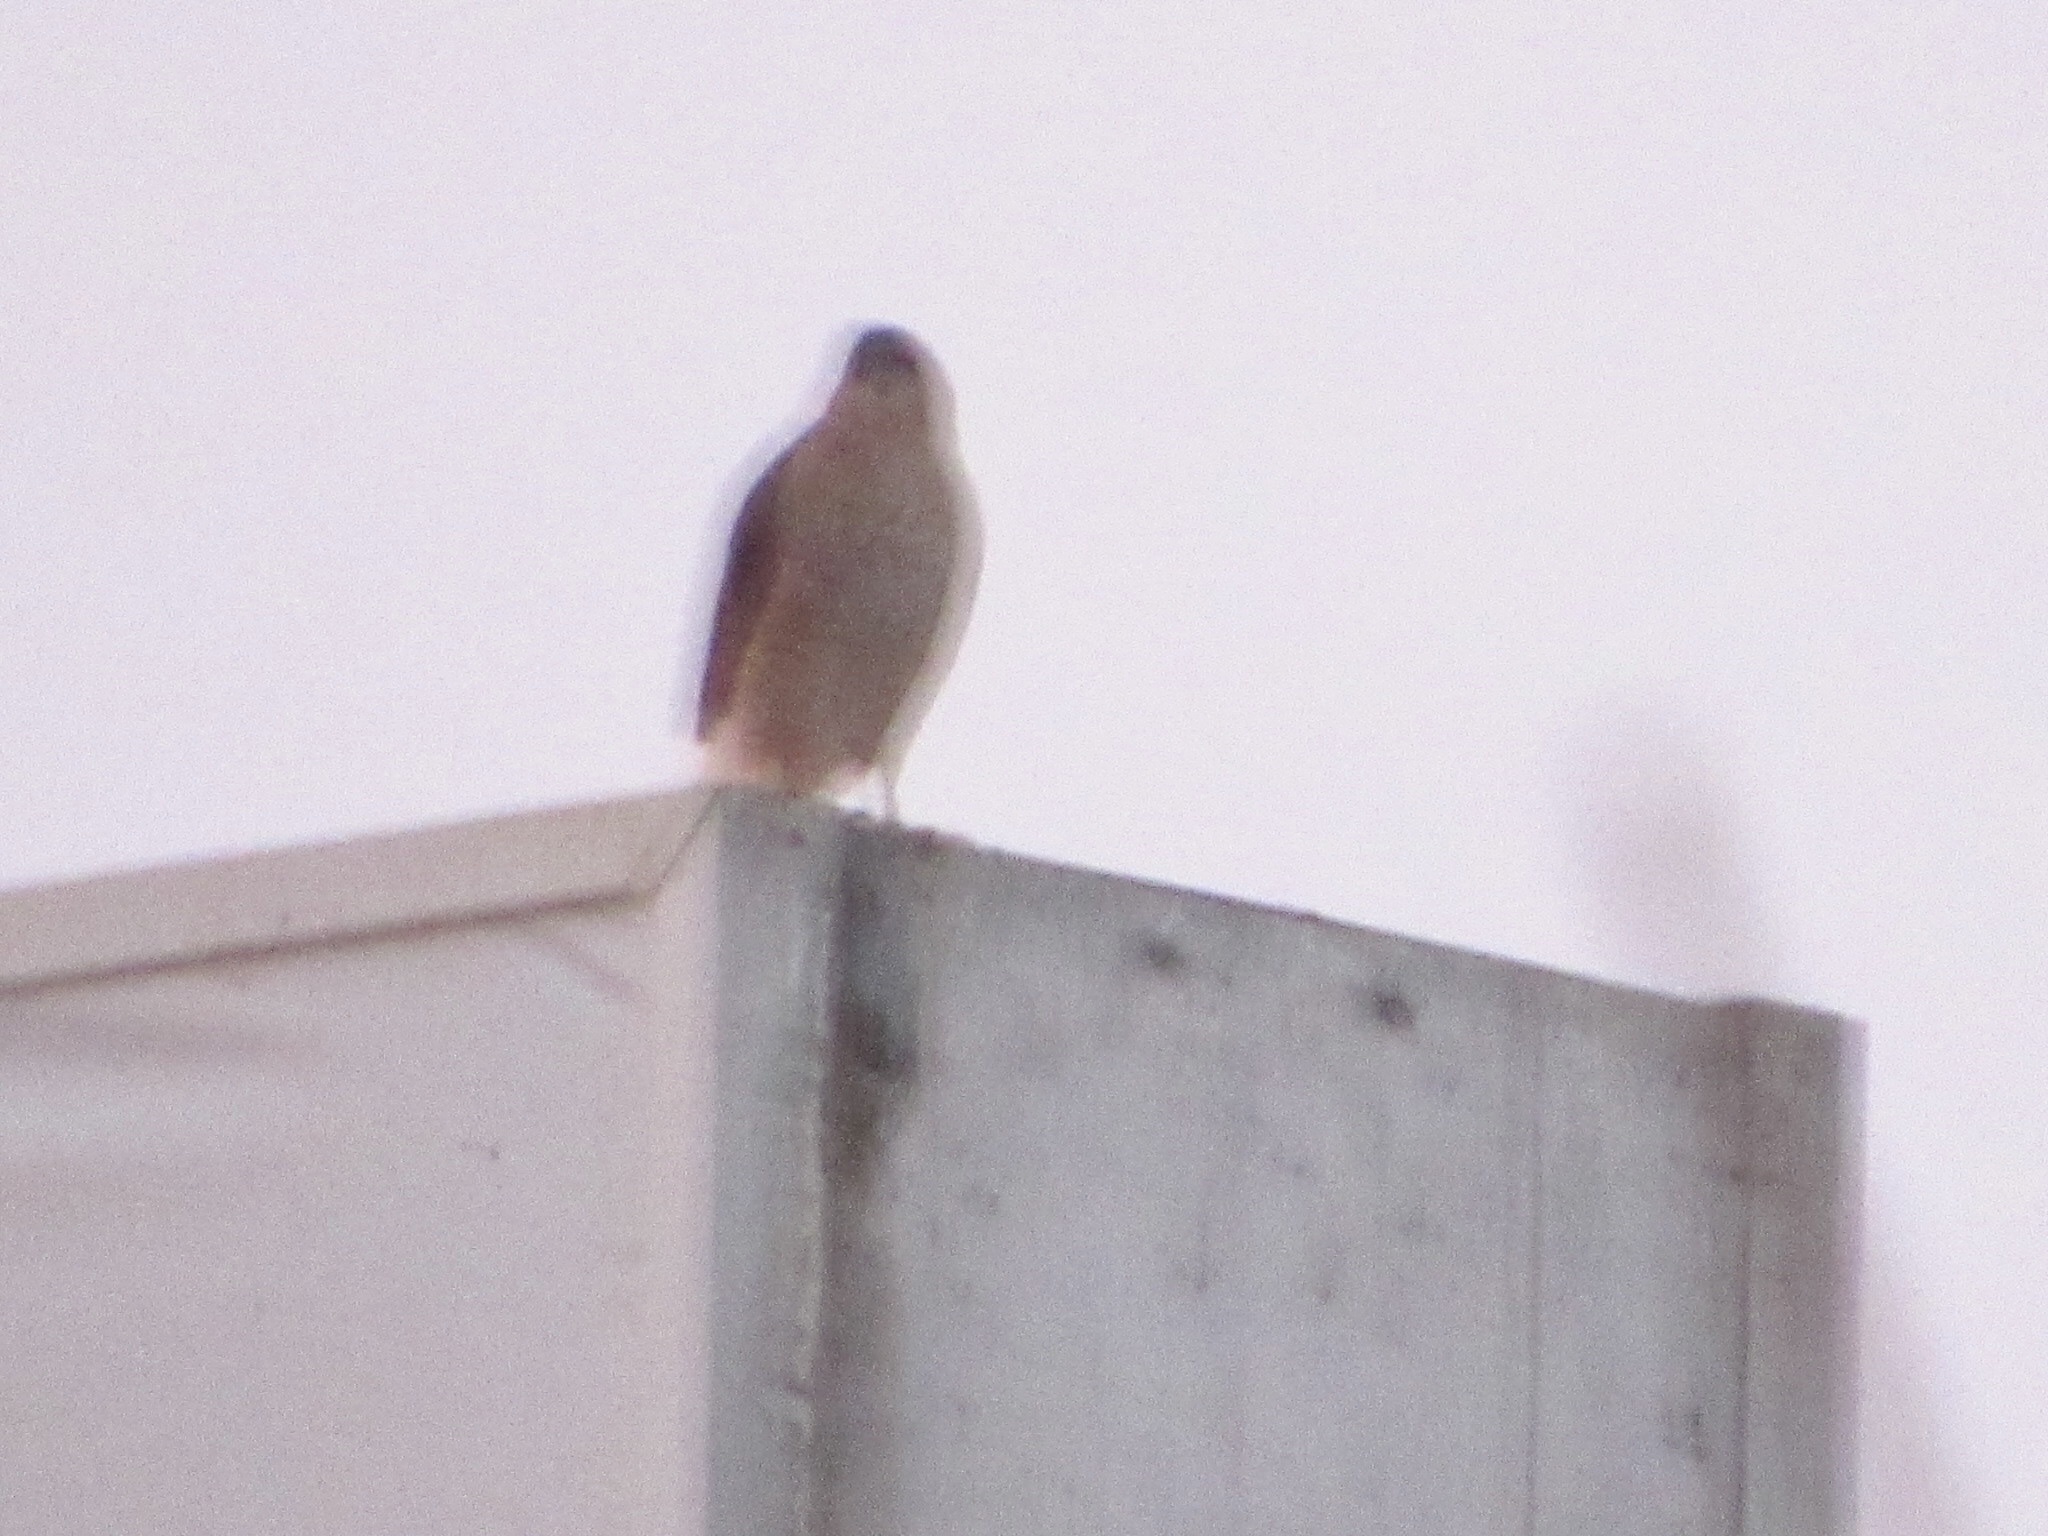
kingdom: Animalia
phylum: Chordata
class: Aves
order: Accipitriformes
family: Accipitridae
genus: Accipiter
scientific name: Accipiter
